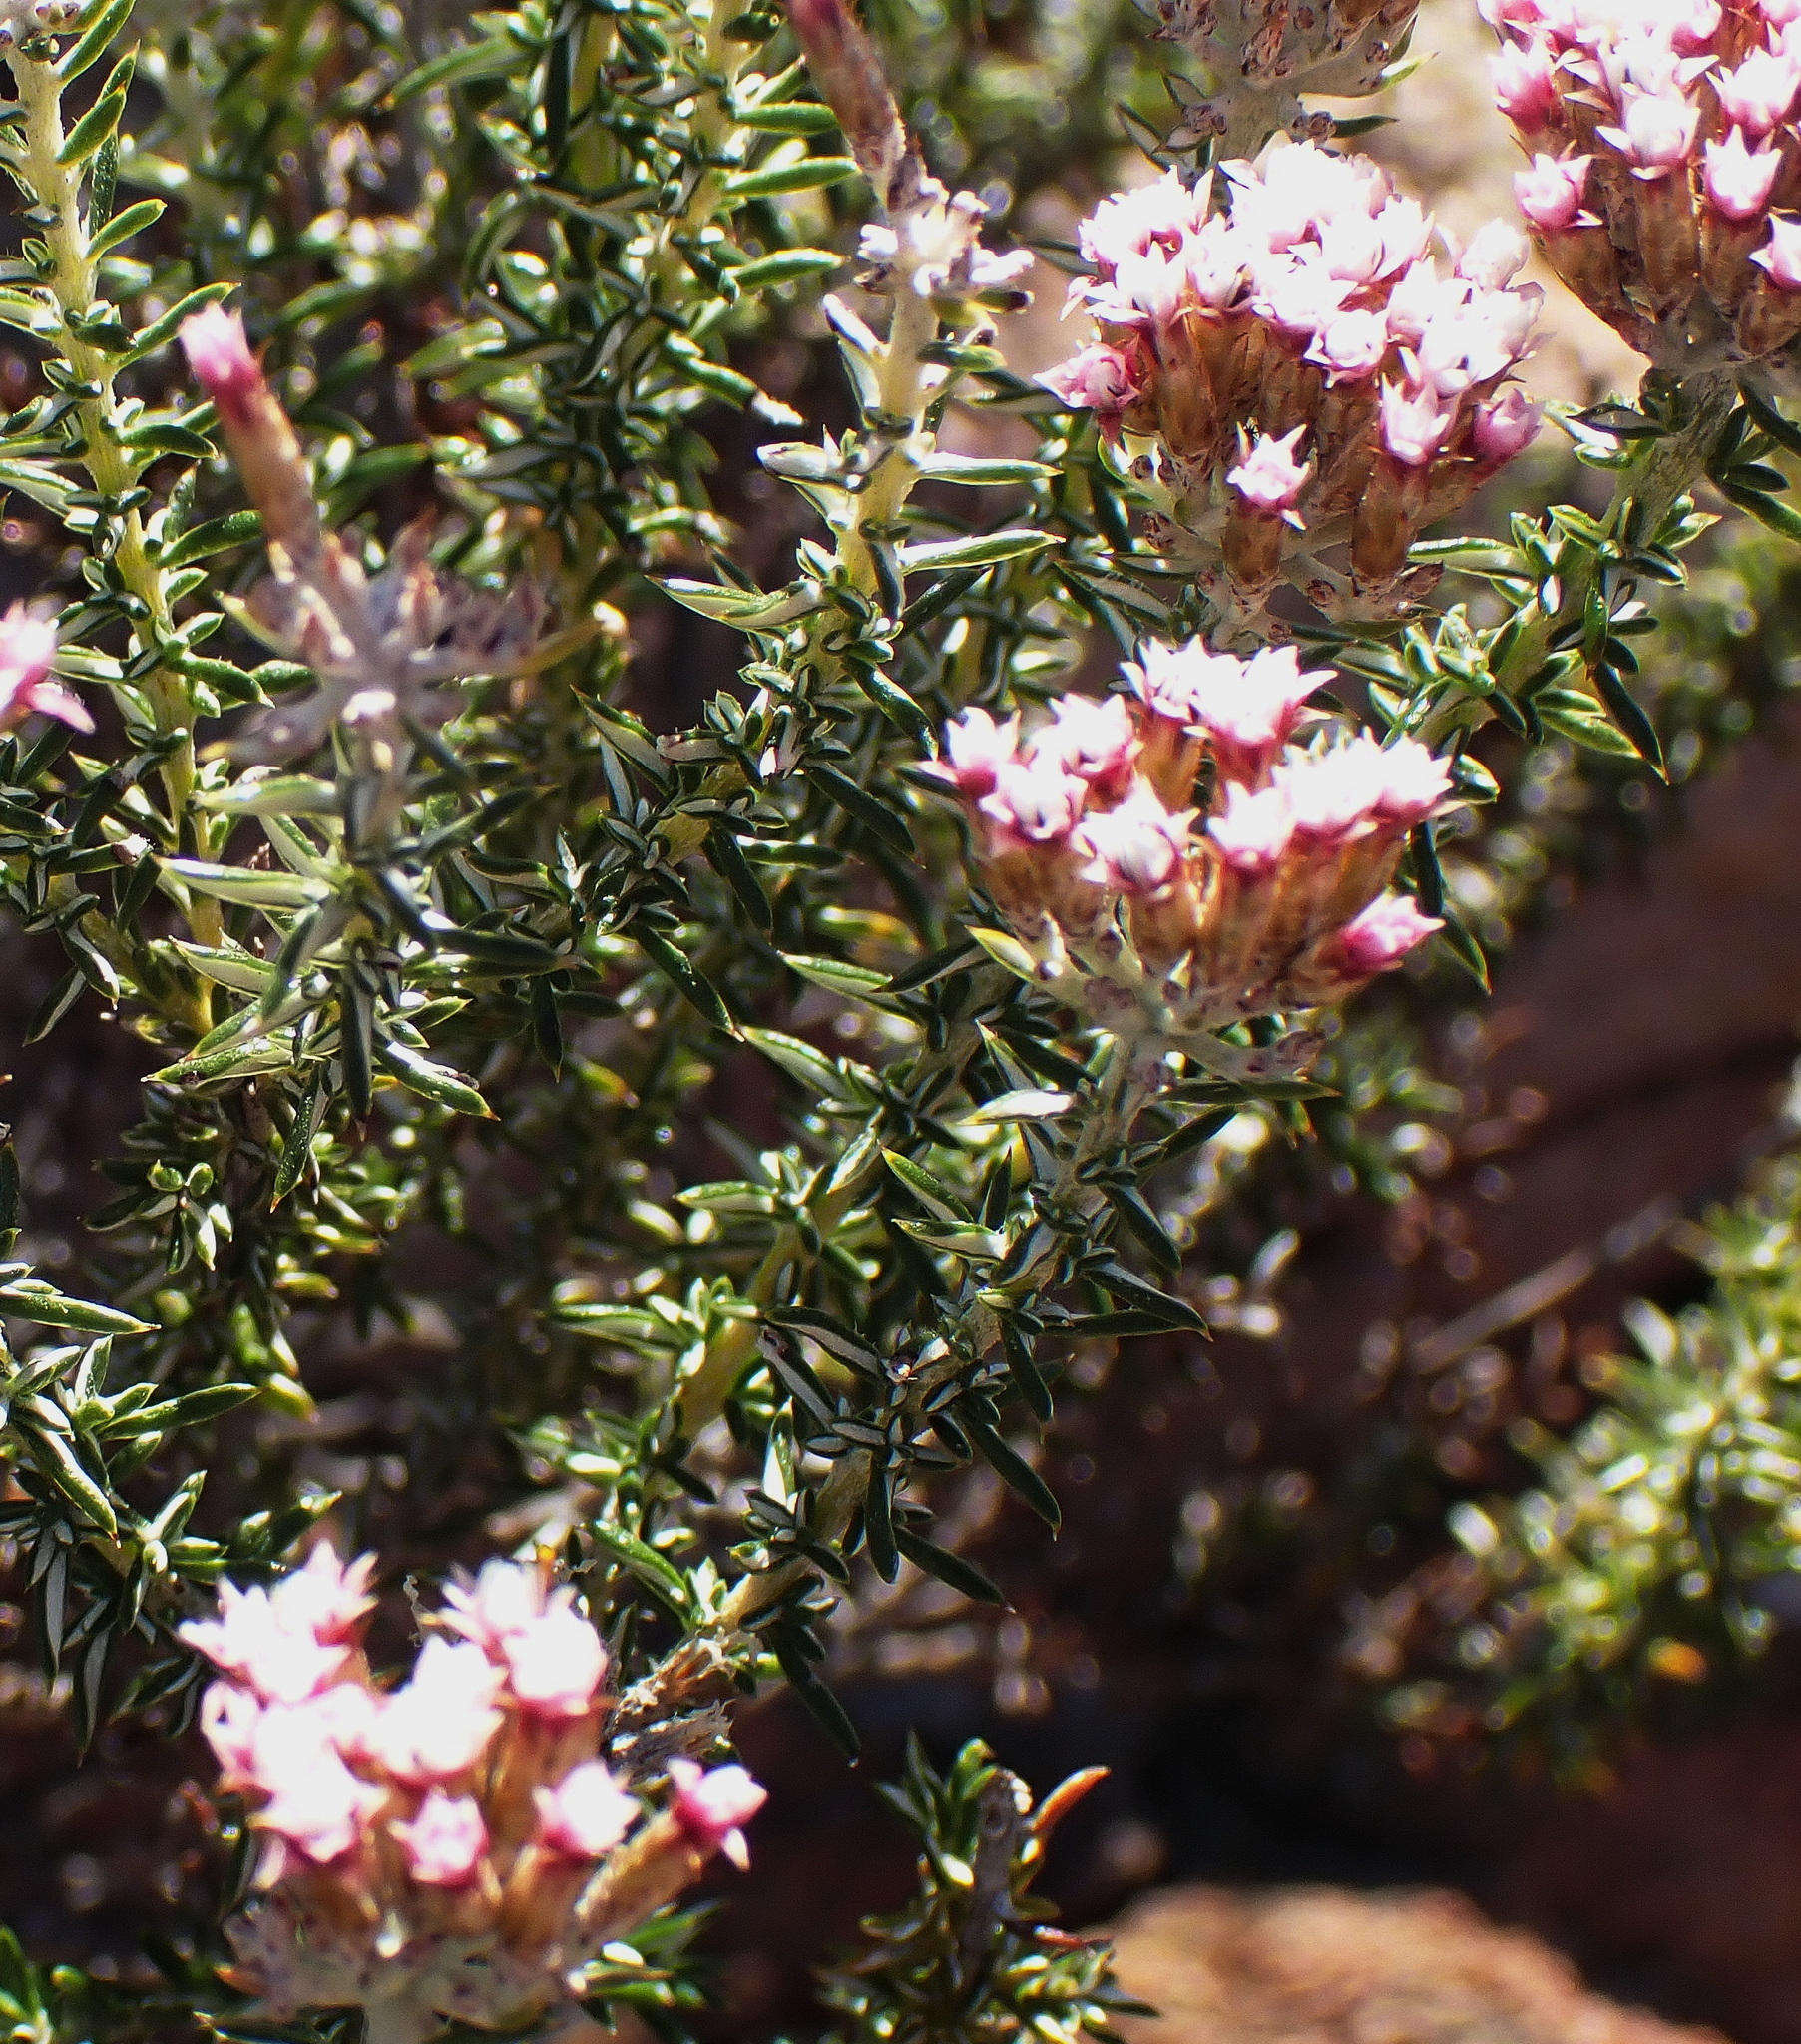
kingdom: Plantae
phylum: Tracheophyta
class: Magnoliopsida
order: Asterales
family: Asteraceae
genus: Metalasia
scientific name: Metalasia massonii
